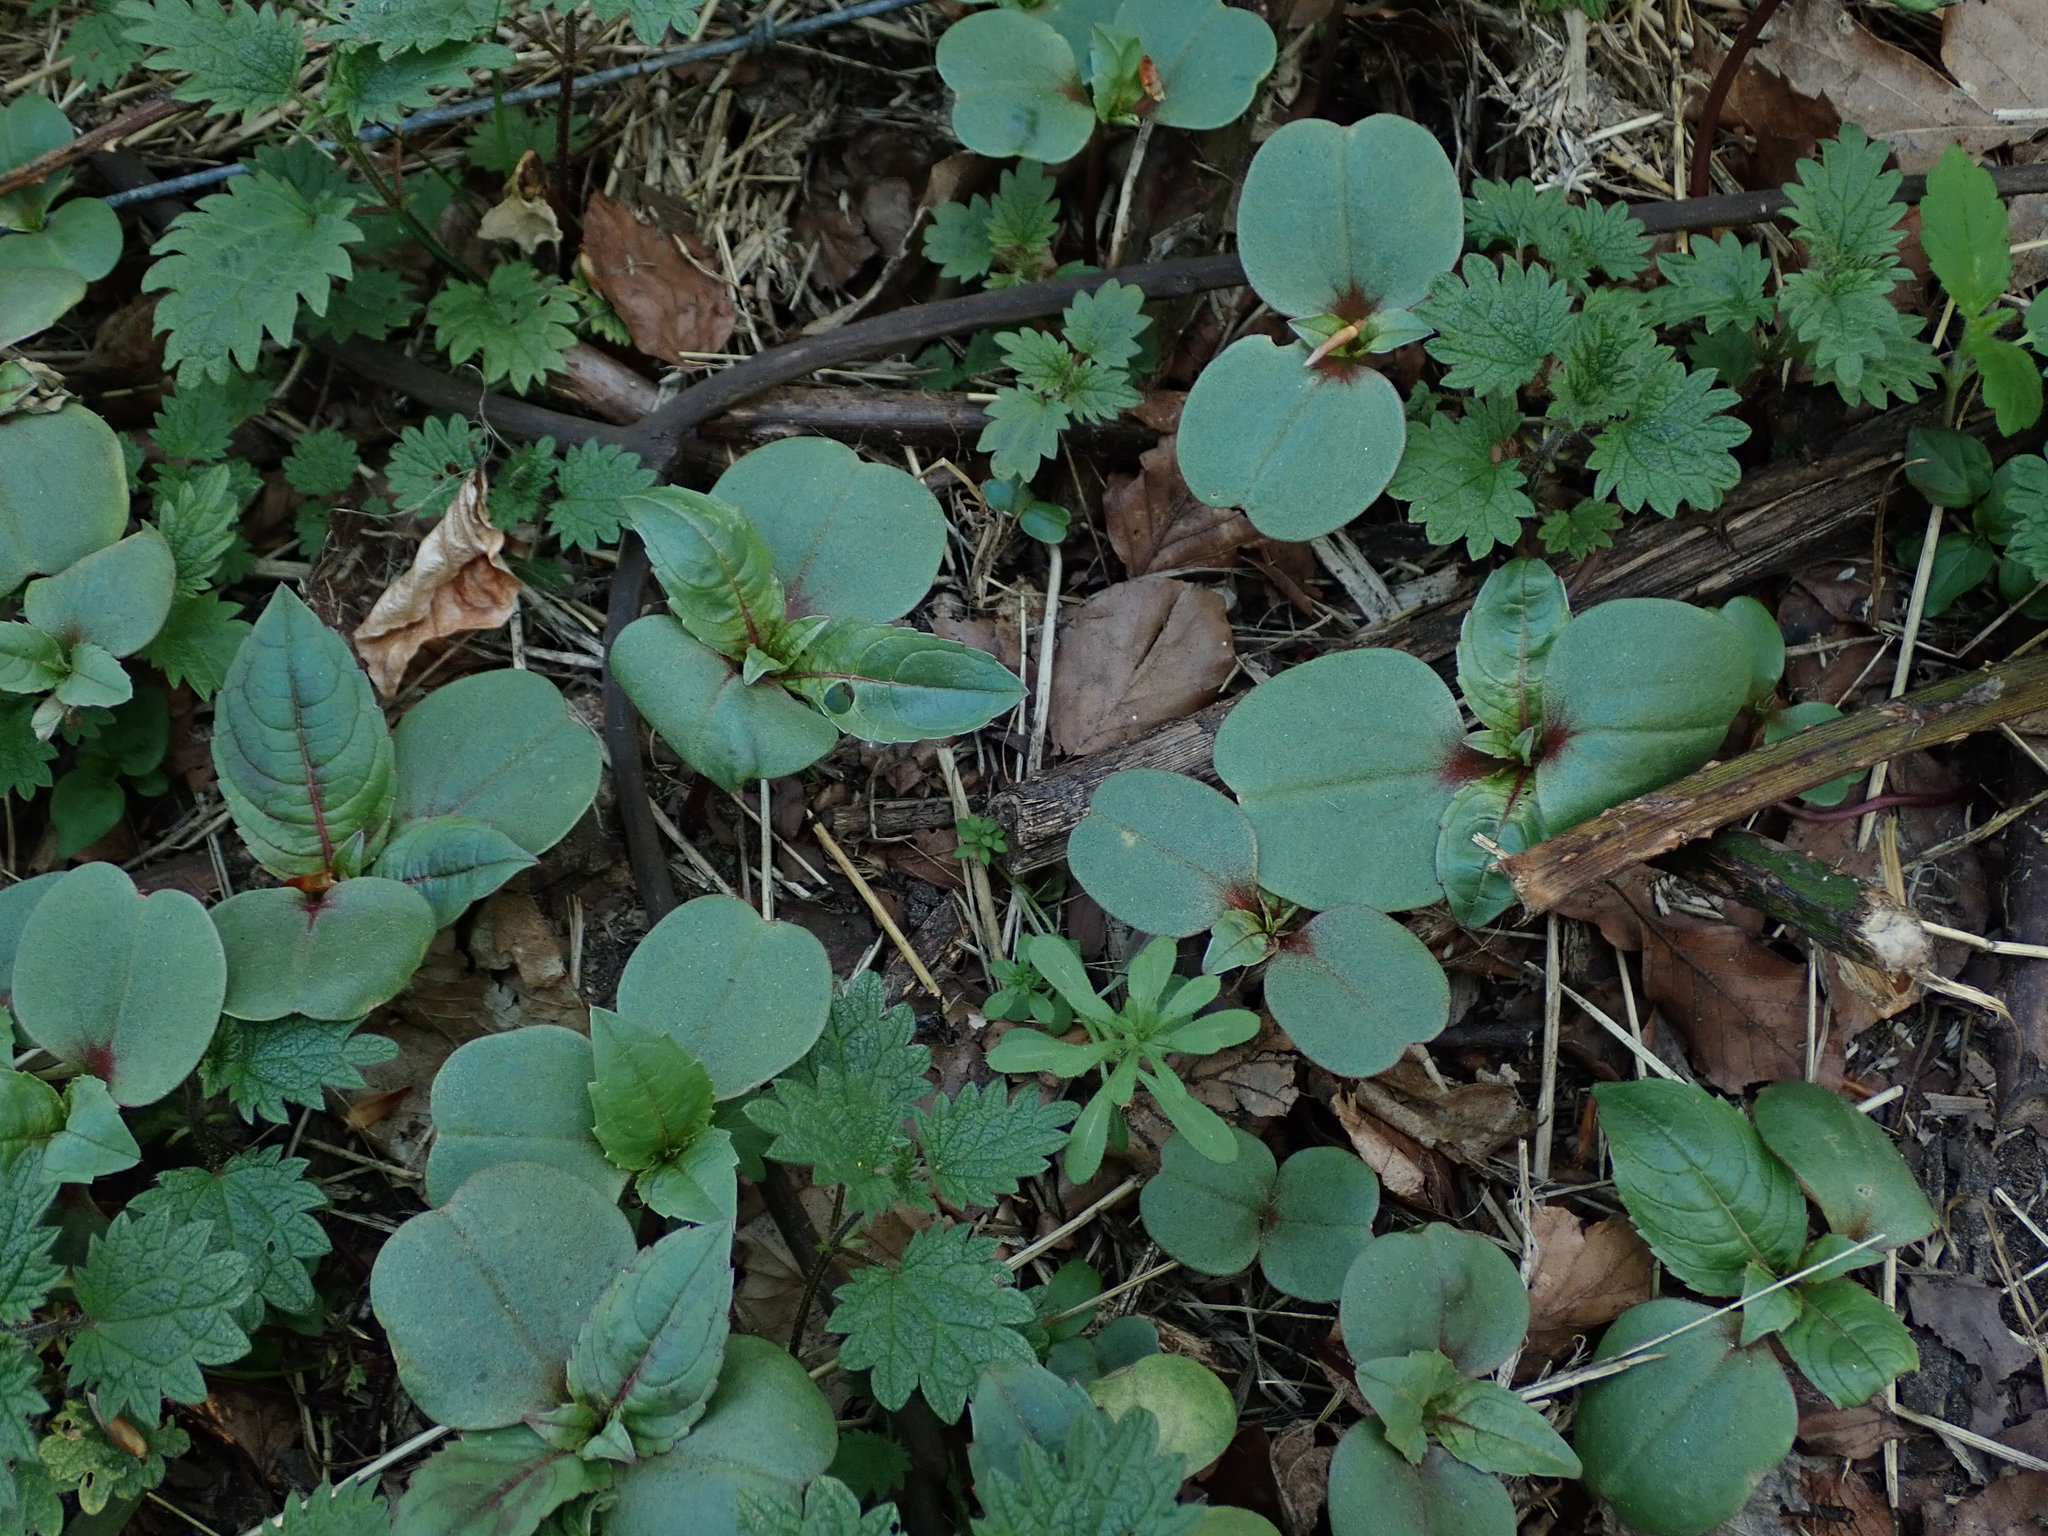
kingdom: Plantae
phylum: Tracheophyta
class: Magnoliopsida
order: Ericales
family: Balsaminaceae
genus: Impatiens
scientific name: Impatiens glandulifera
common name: Himalayan balsam
